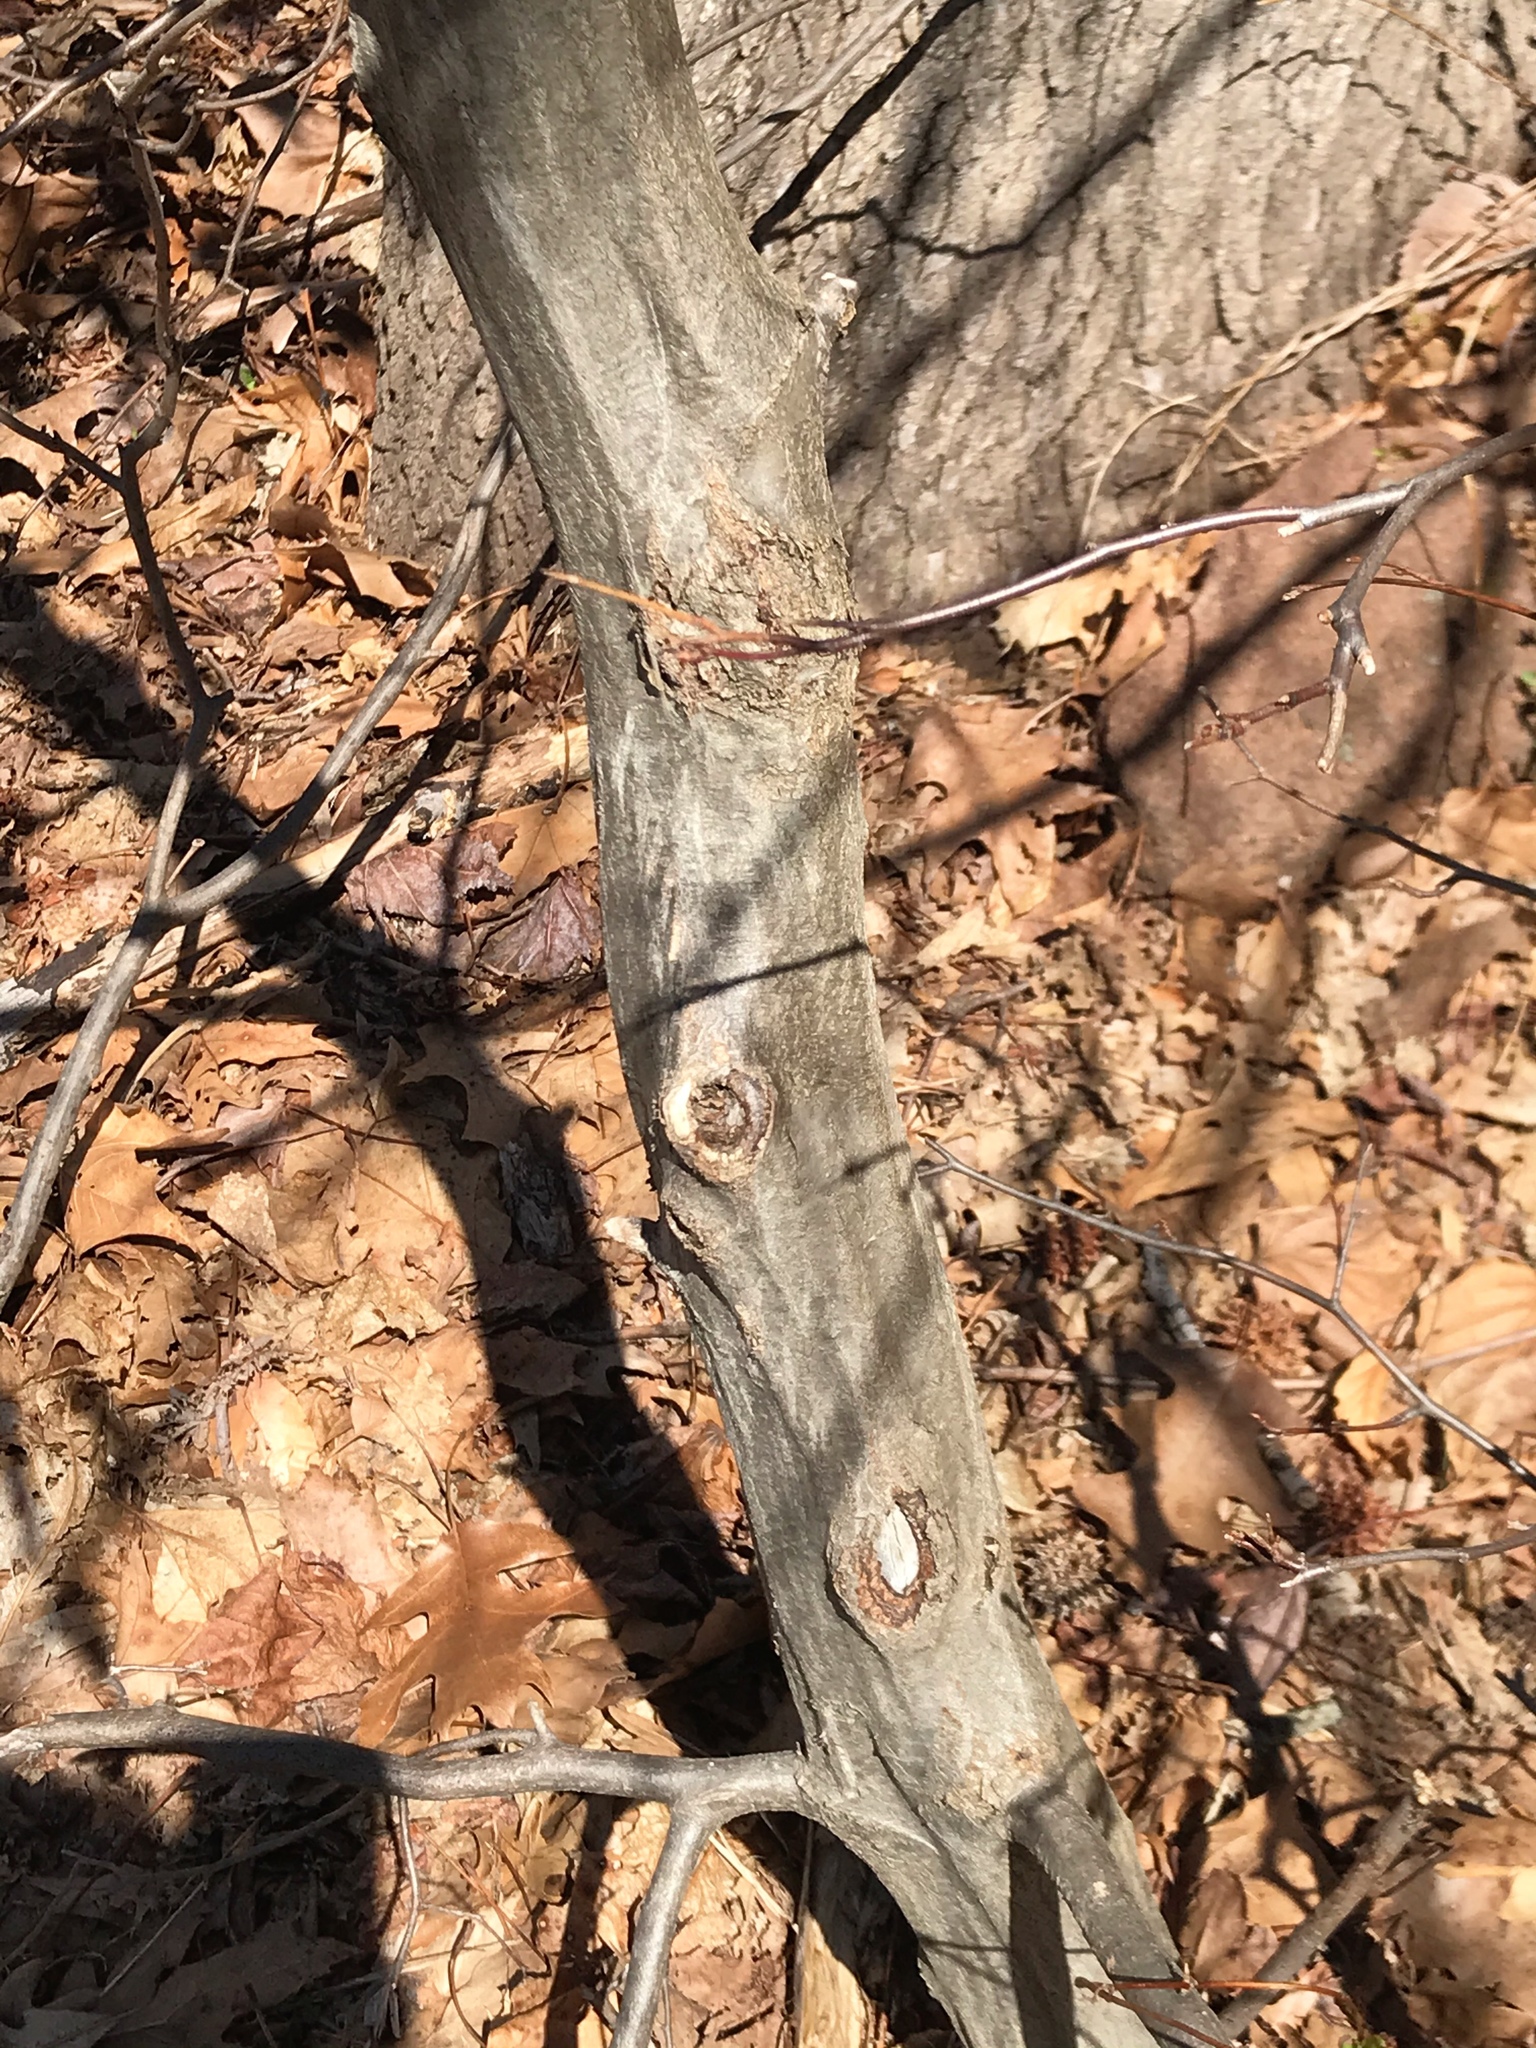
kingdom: Plantae
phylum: Tracheophyta
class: Magnoliopsida
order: Fagales
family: Betulaceae
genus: Carpinus
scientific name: Carpinus caroliniana
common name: American hornbeam
